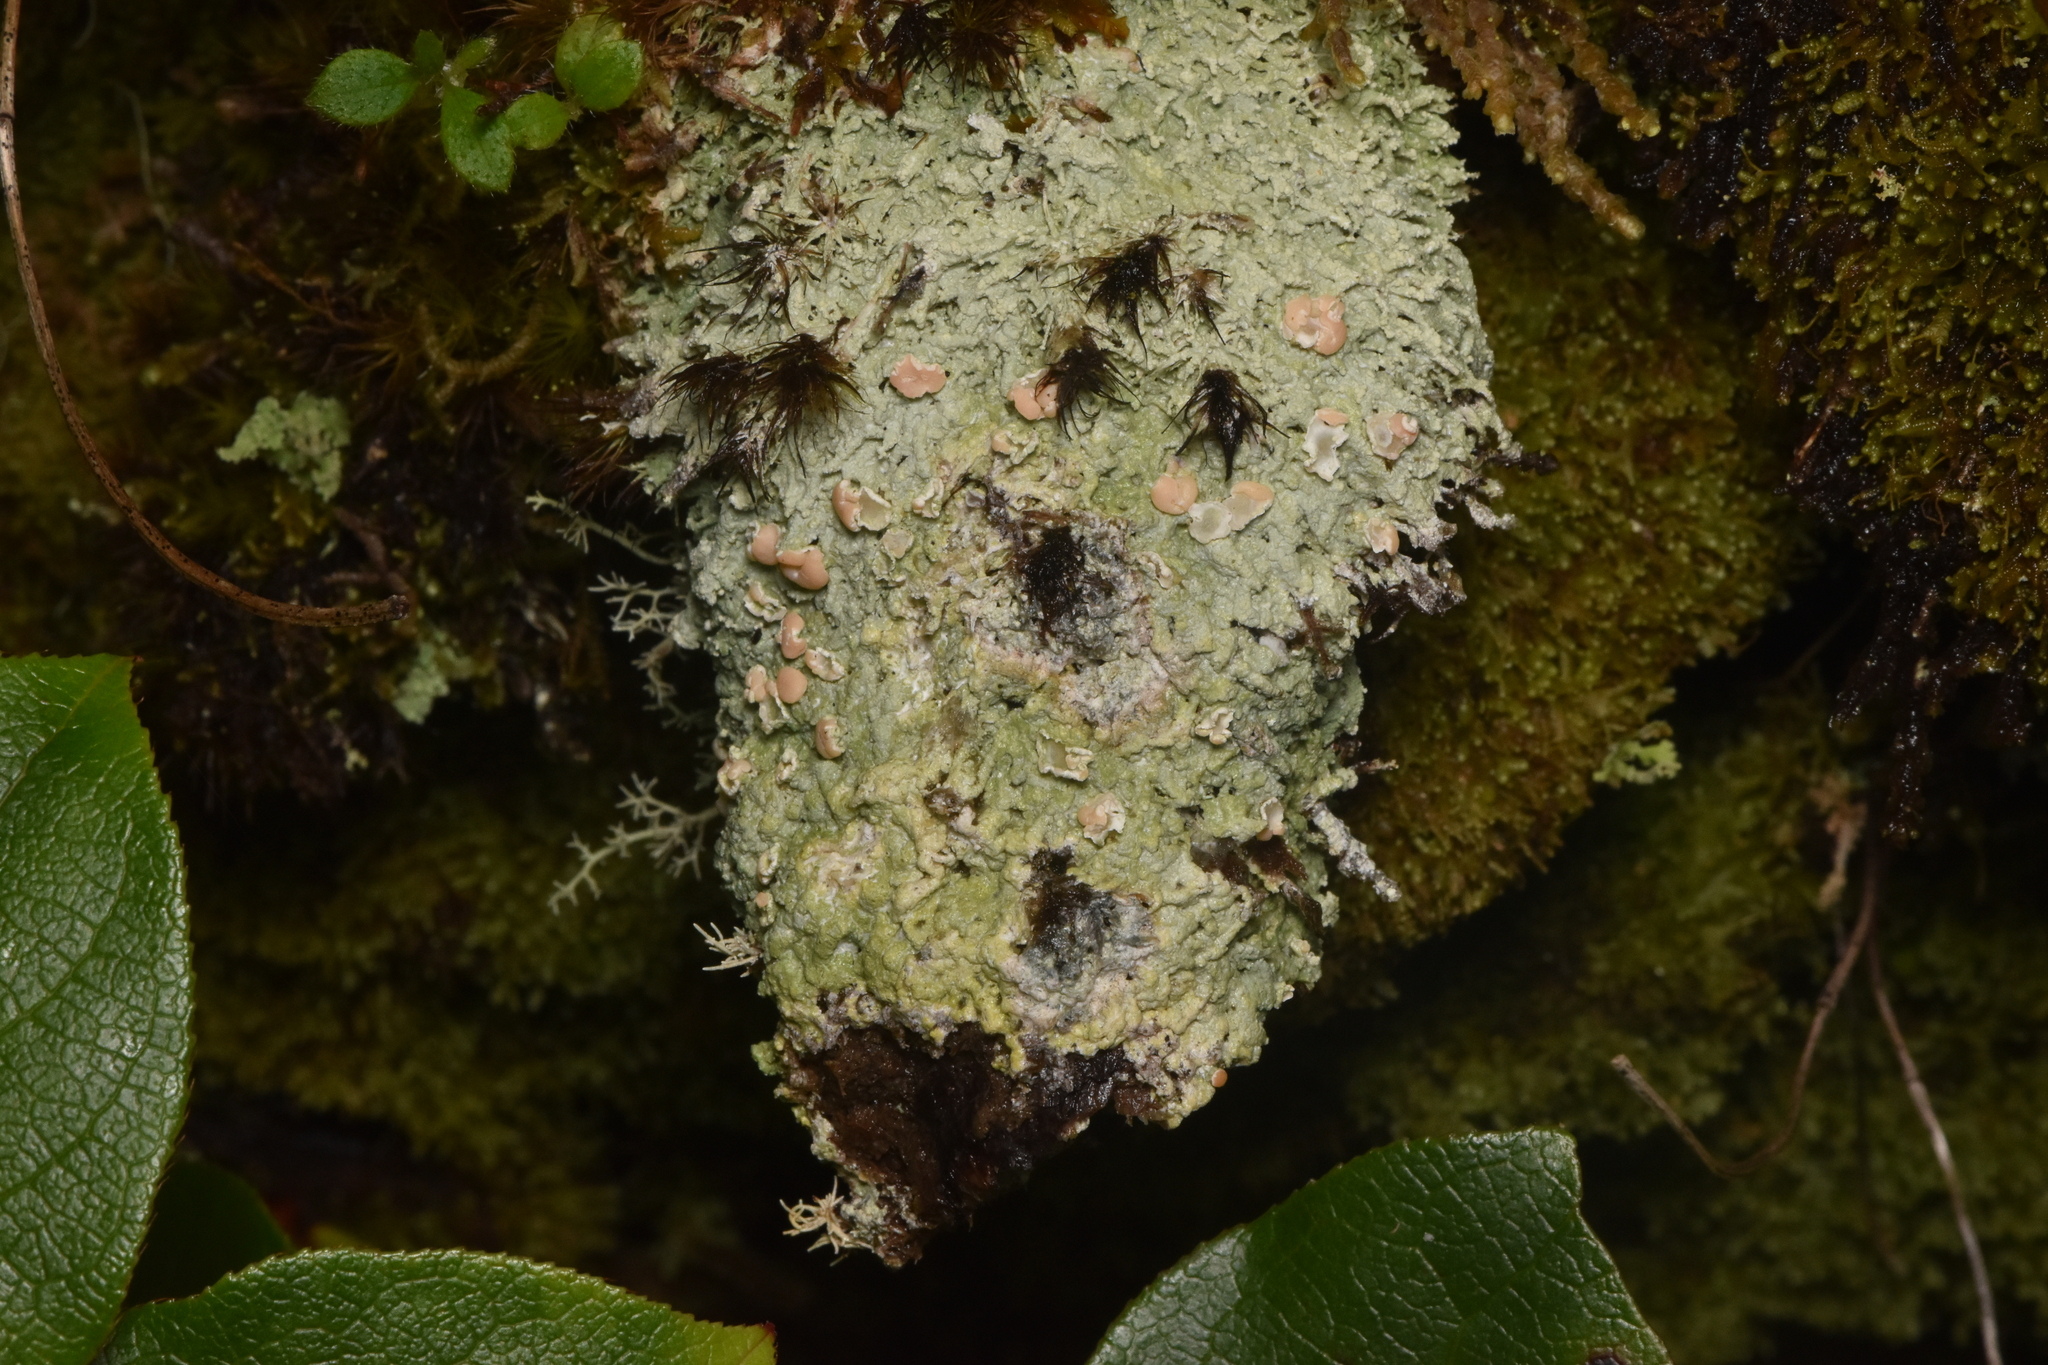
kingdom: Fungi
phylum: Ascomycota
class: Lecanoromycetes
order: Pertusariales
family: Icmadophilaceae
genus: Icmadophila
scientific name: Icmadophila ericetorum
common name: Candy lichen
